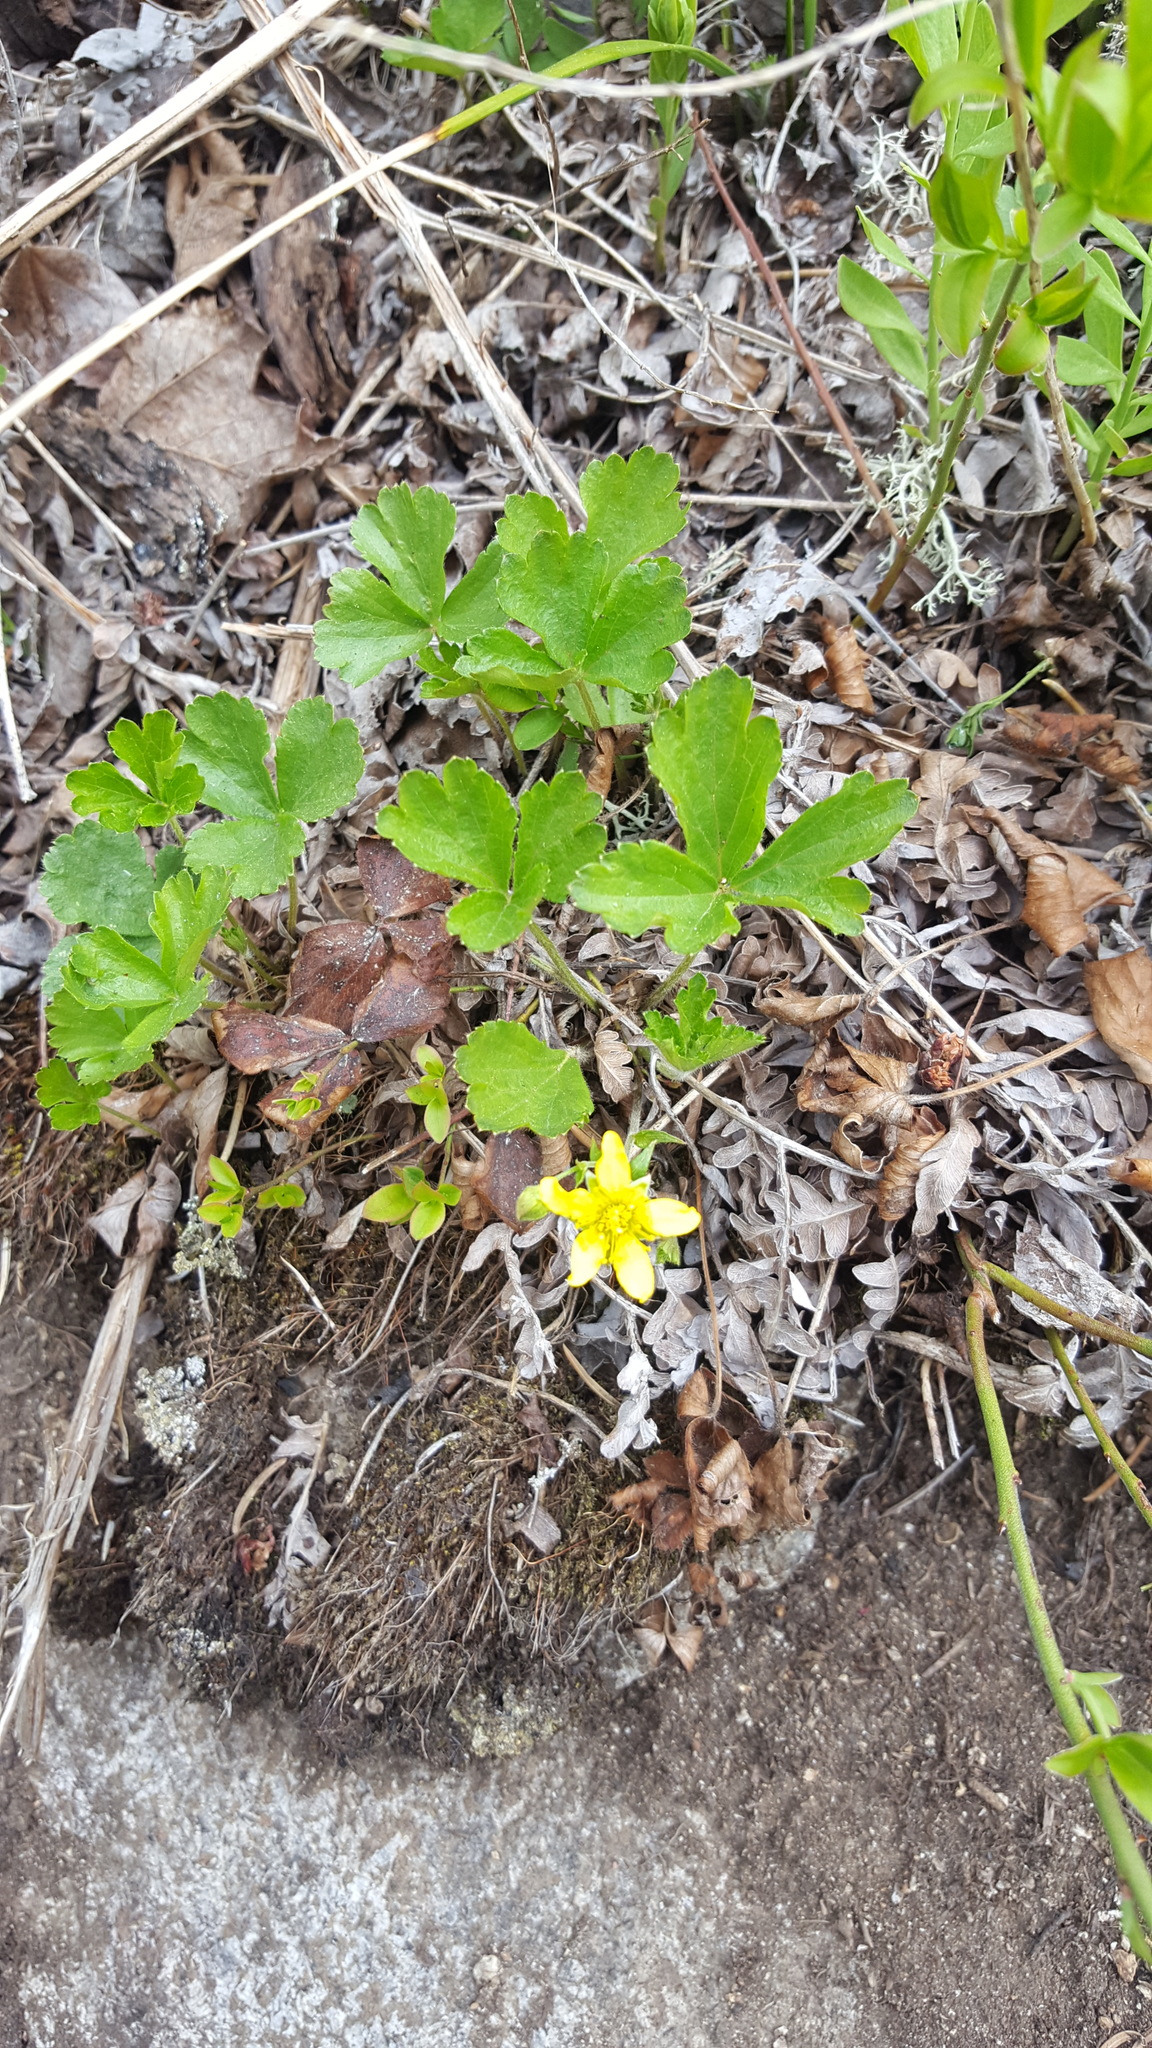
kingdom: Plantae
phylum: Tracheophyta
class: Magnoliopsida
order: Rosales
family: Rosaceae
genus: Geum
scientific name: Geum fragarioides
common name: Appalachian barren strawberry
